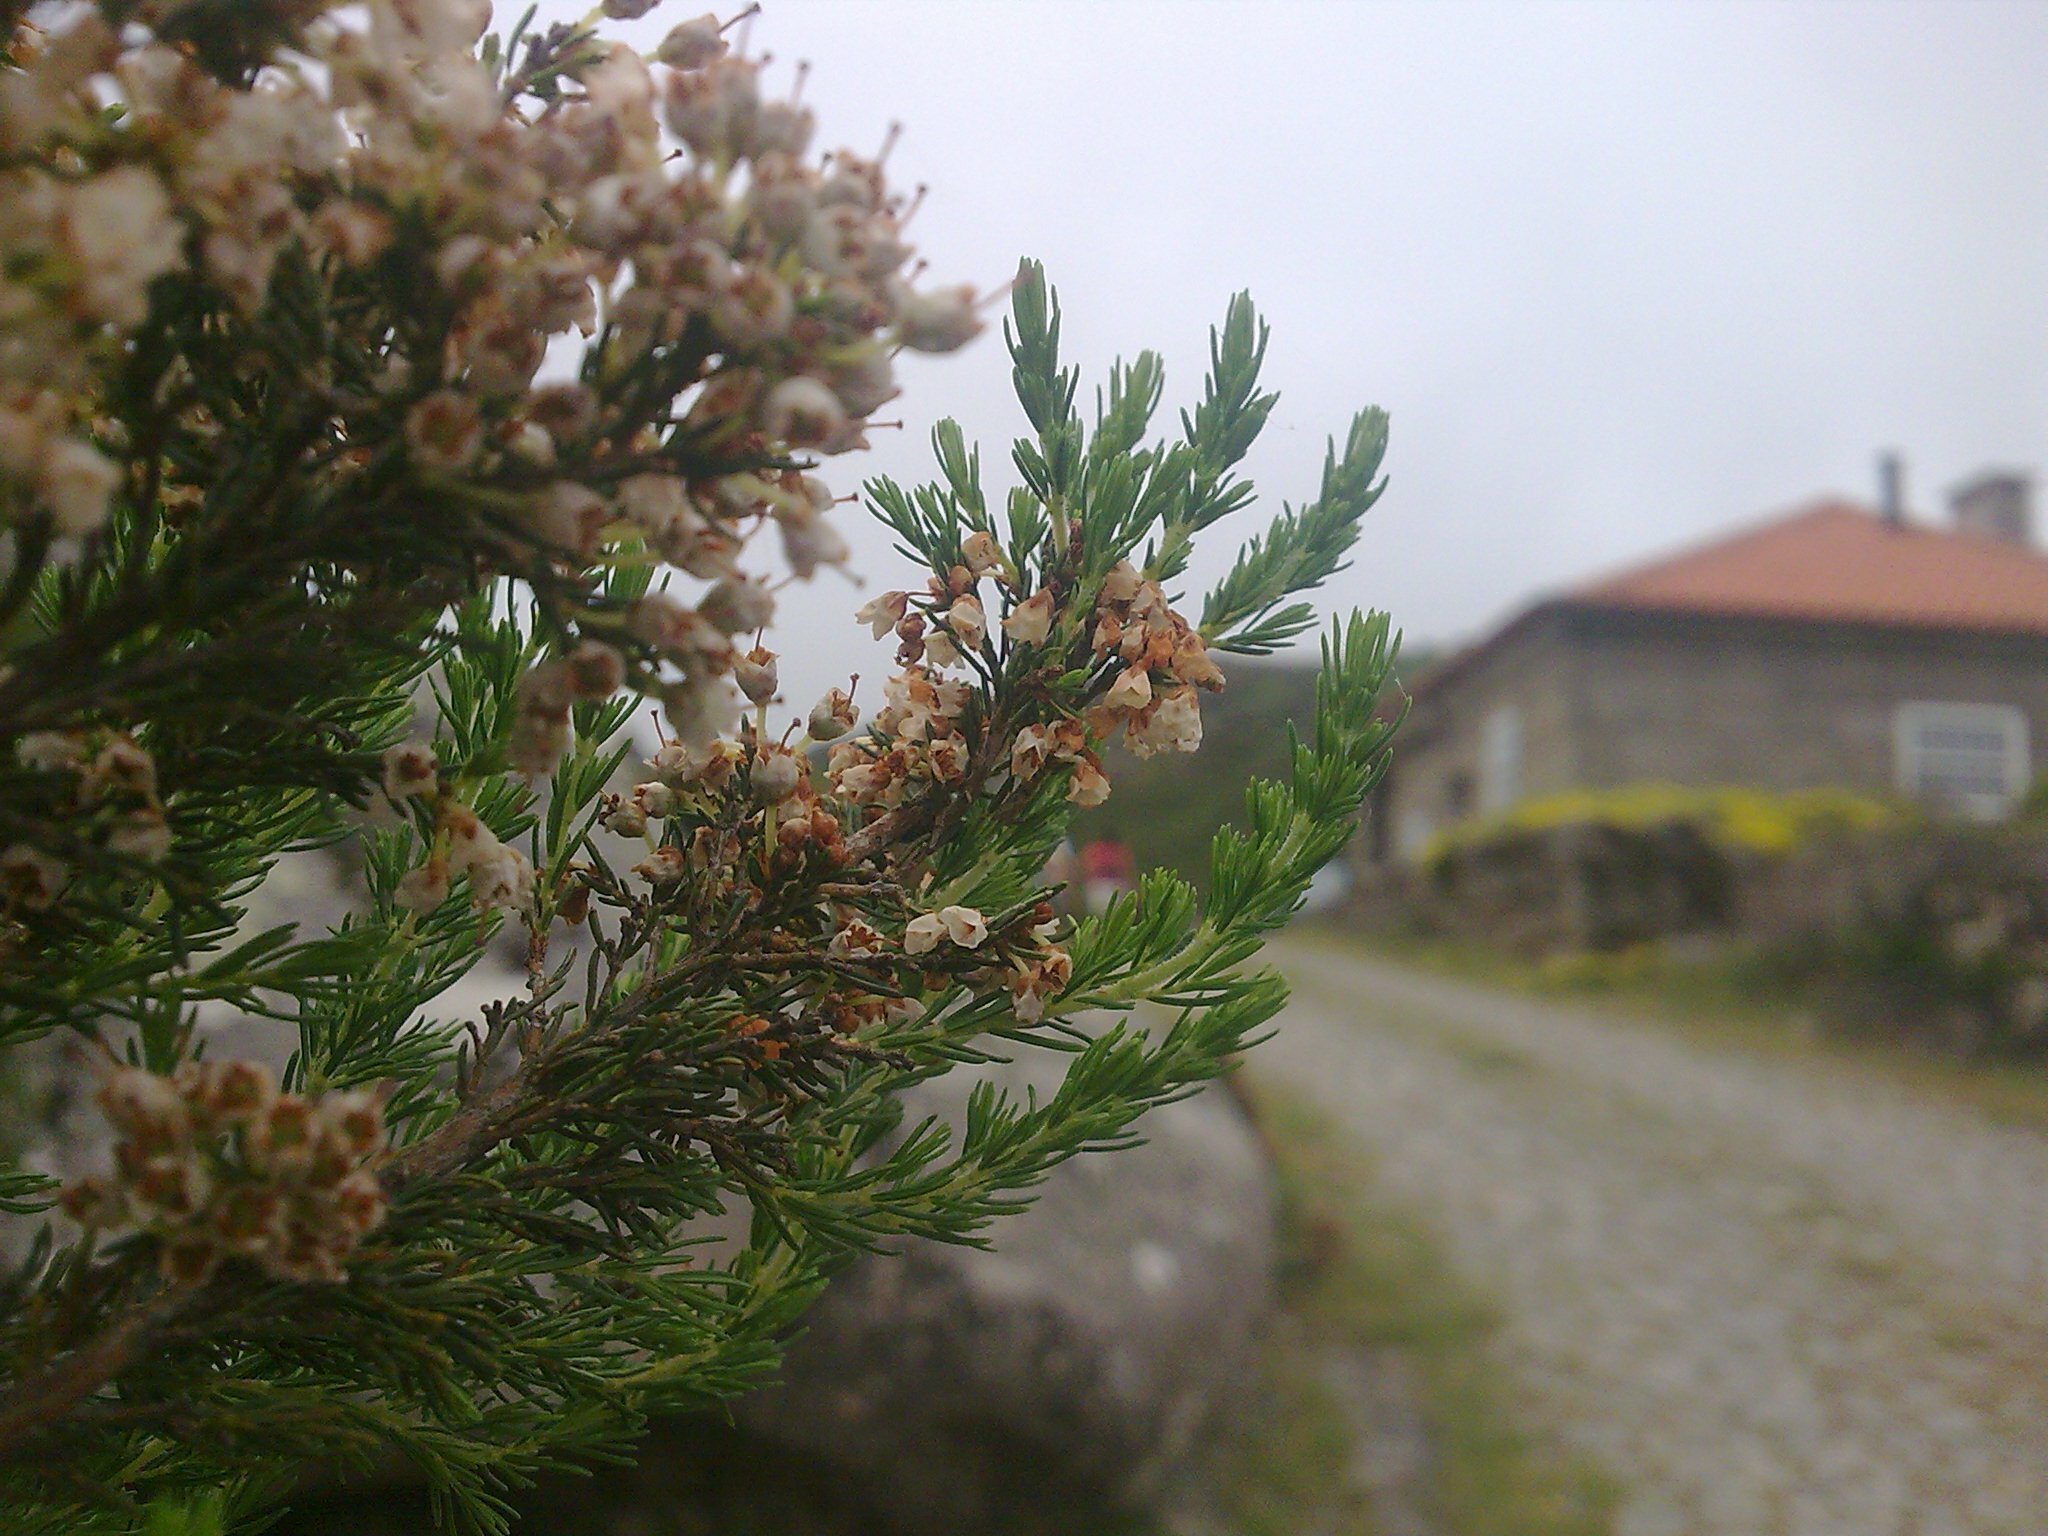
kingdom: Plantae
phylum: Tracheophyta
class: Magnoliopsida
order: Ericales
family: Ericaceae
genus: Erica
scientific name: Erica arborea
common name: Tree heath
